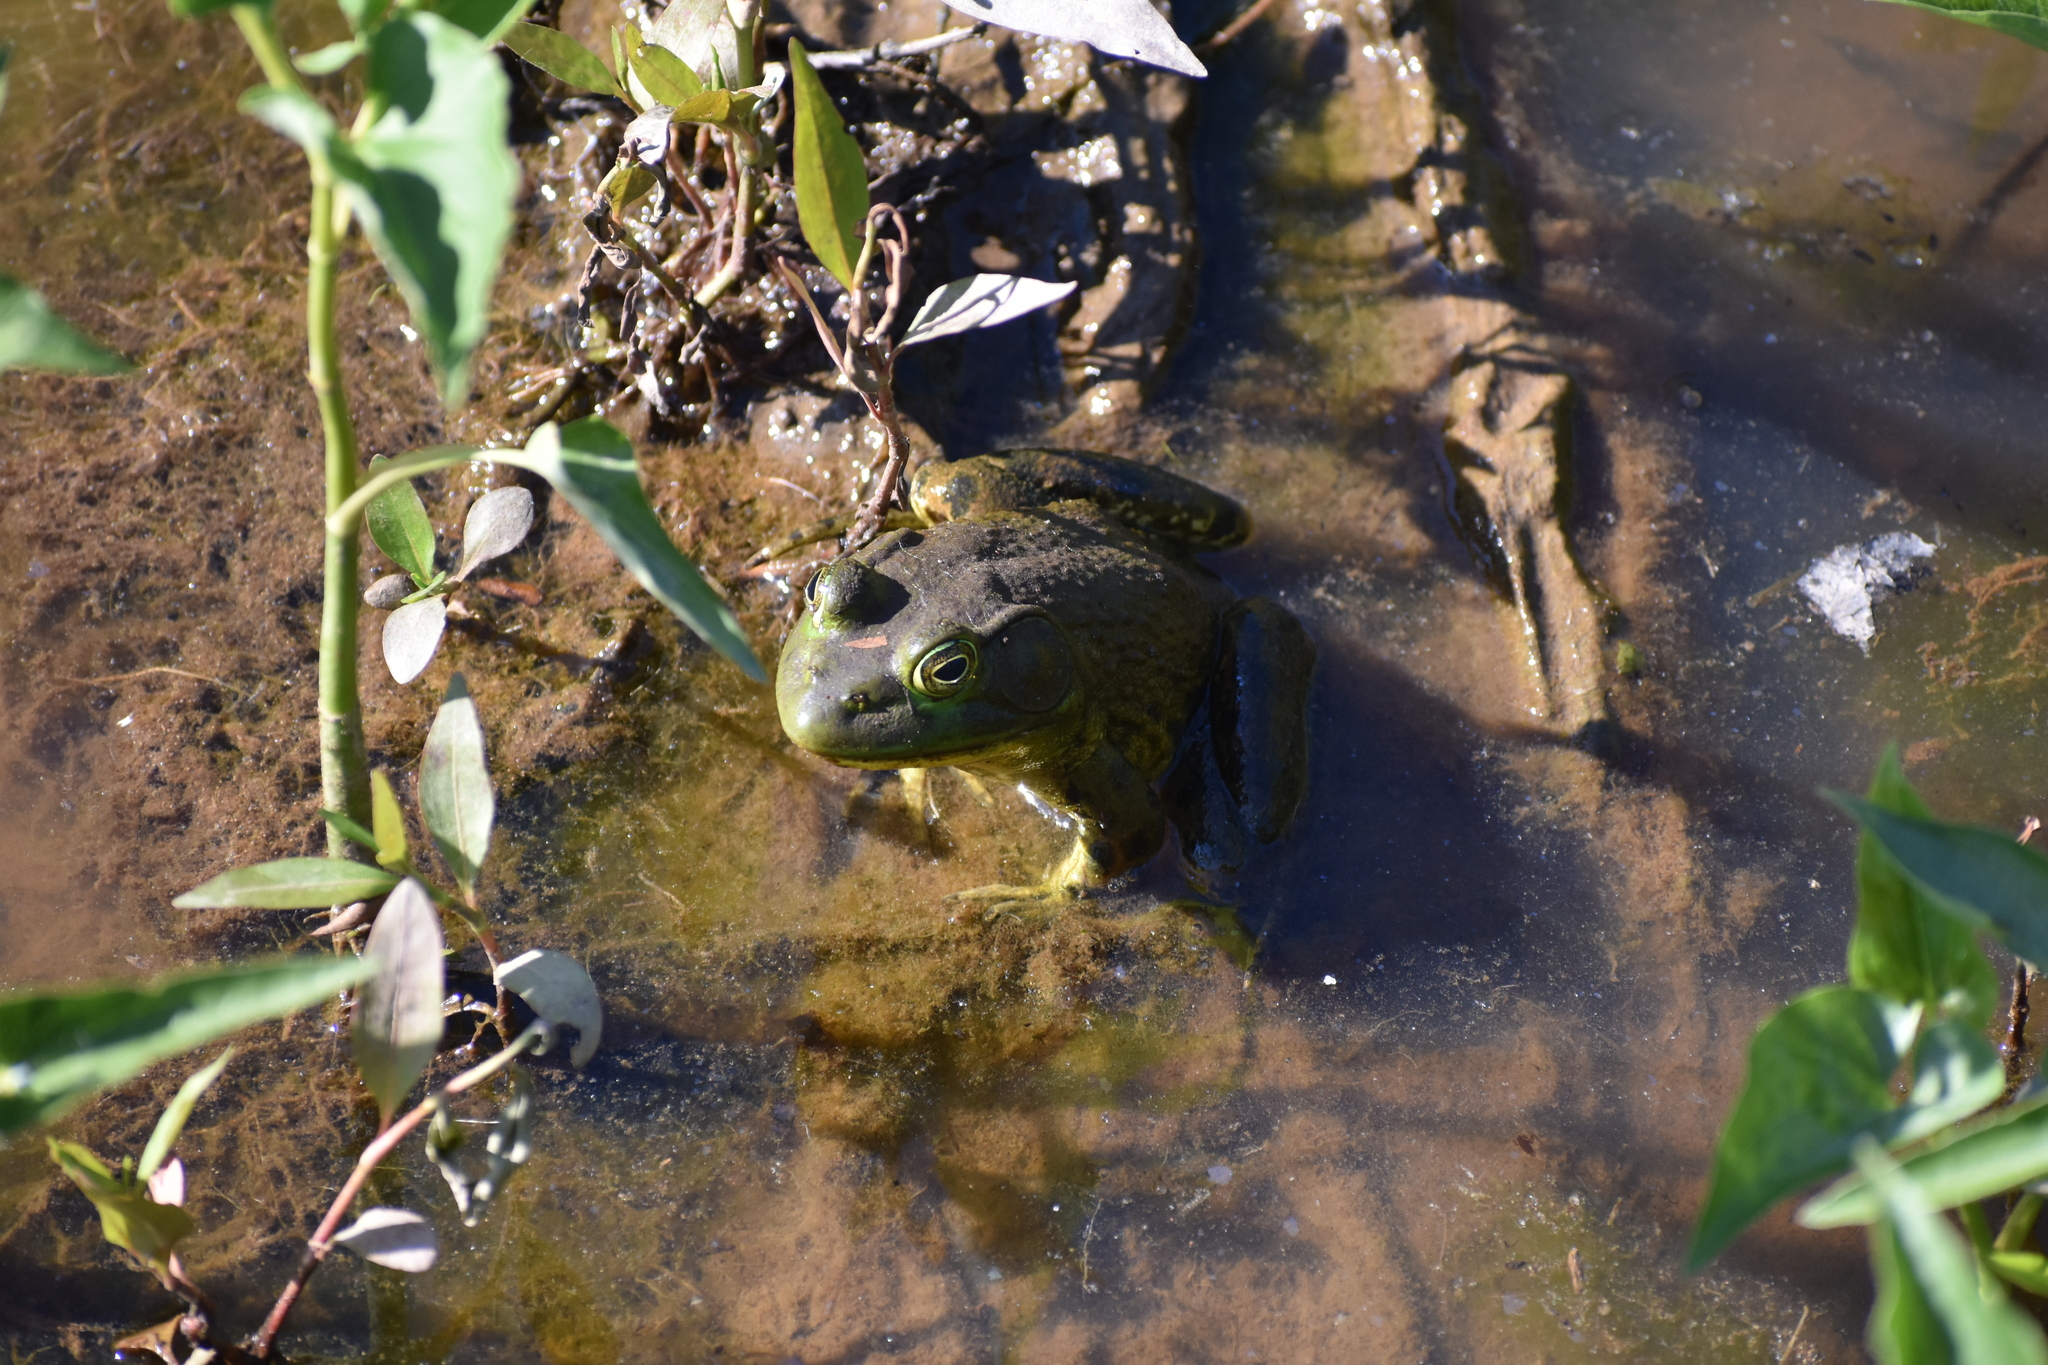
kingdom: Animalia
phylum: Chordata
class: Amphibia
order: Anura
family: Ranidae
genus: Lithobates
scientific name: Lithobates catesbeianus
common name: American bullfrog
